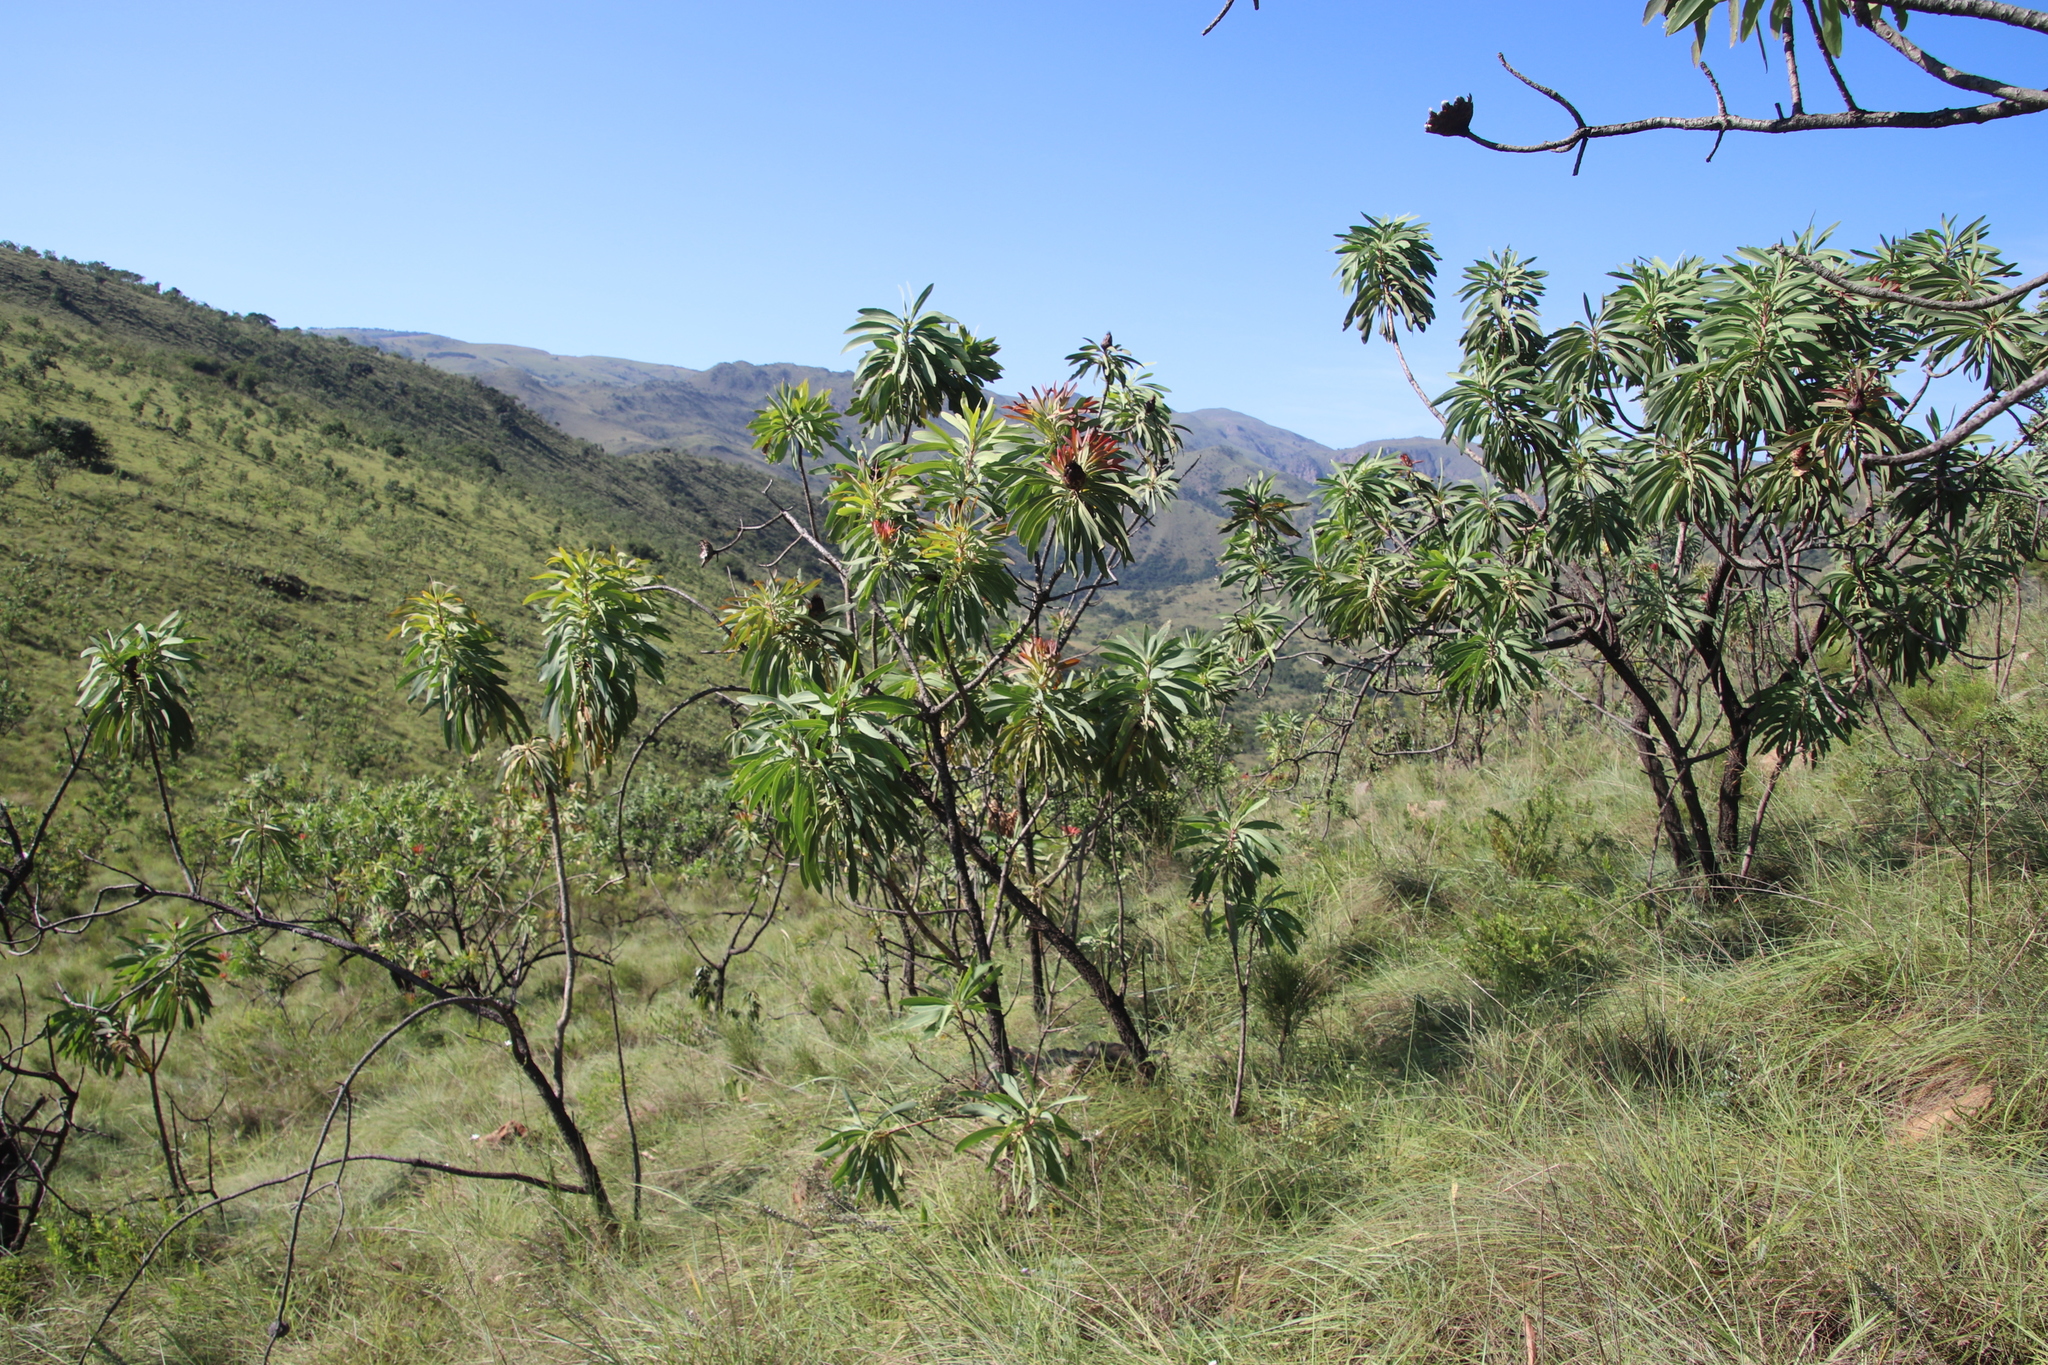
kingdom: Plantae
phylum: Tracheophyta
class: Magnoliopsida
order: Proteales
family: Proteaceae
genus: Protea
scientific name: Protea caffra
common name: Common sugarbush
